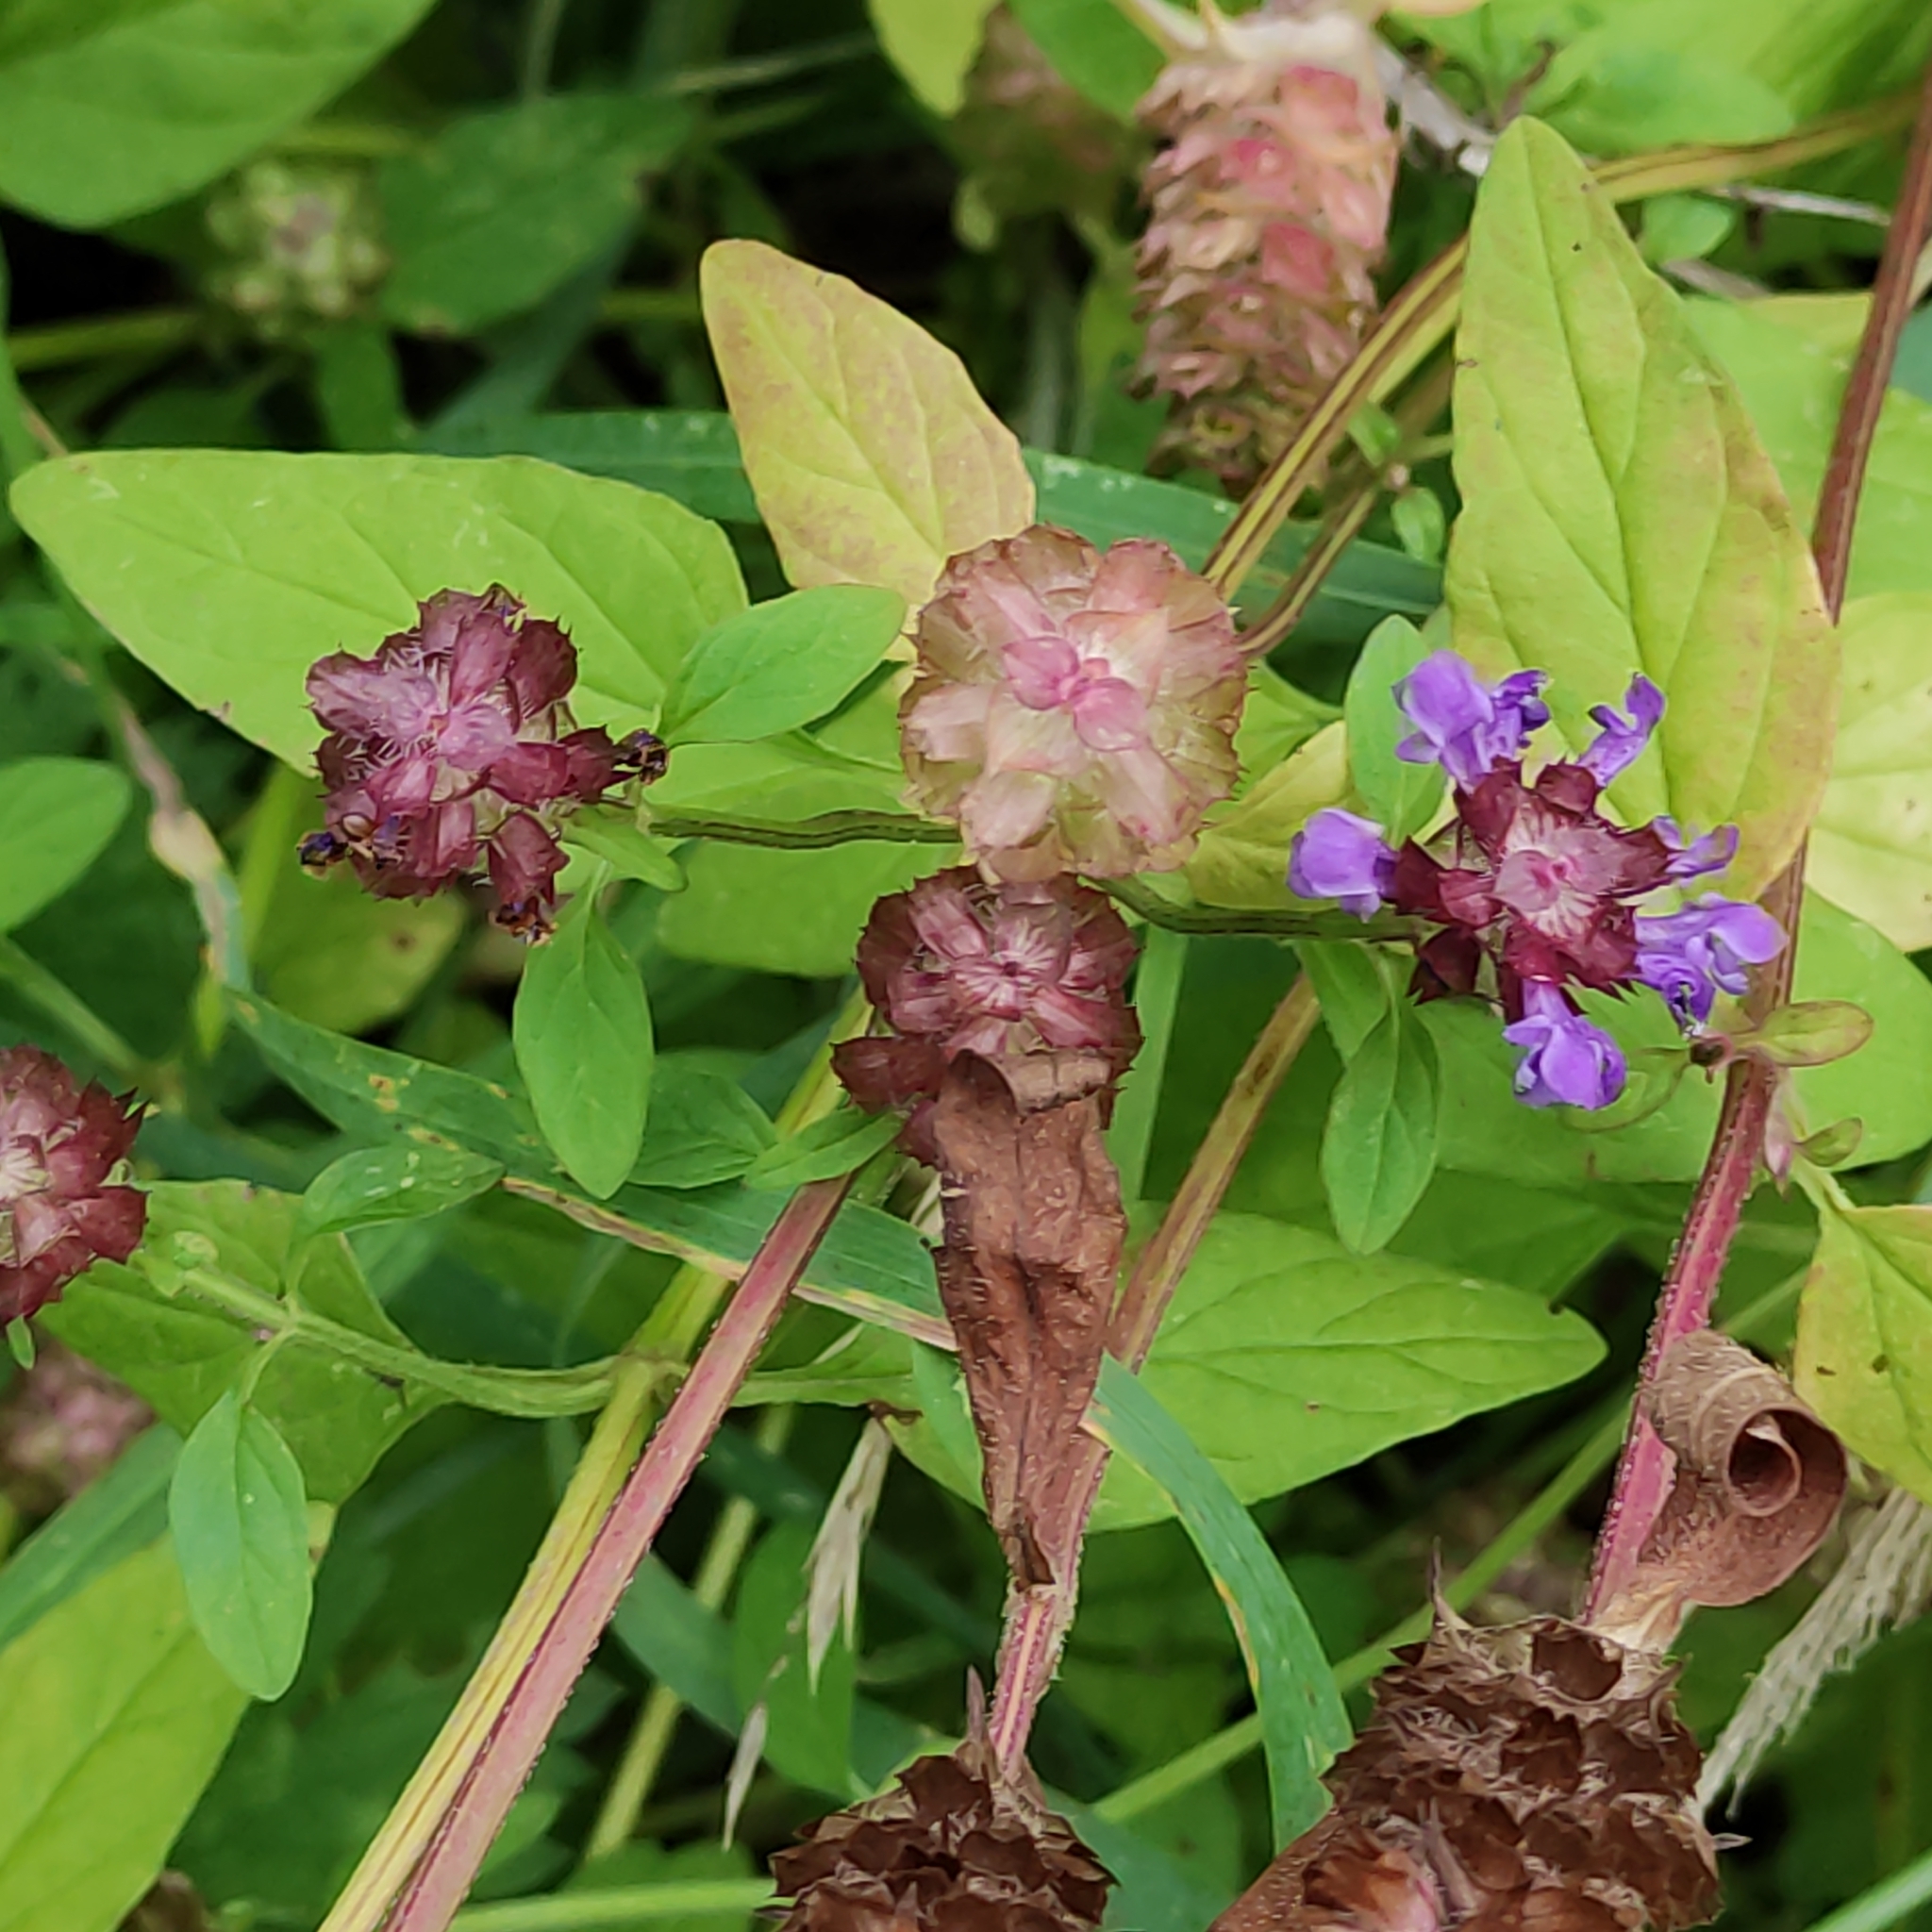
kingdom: Plantae
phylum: Tracheophyta
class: Magnoliopsida
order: Lamiales
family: Lamiaceae
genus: Prunella
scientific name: Prunella vulgaris
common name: Heal-all
